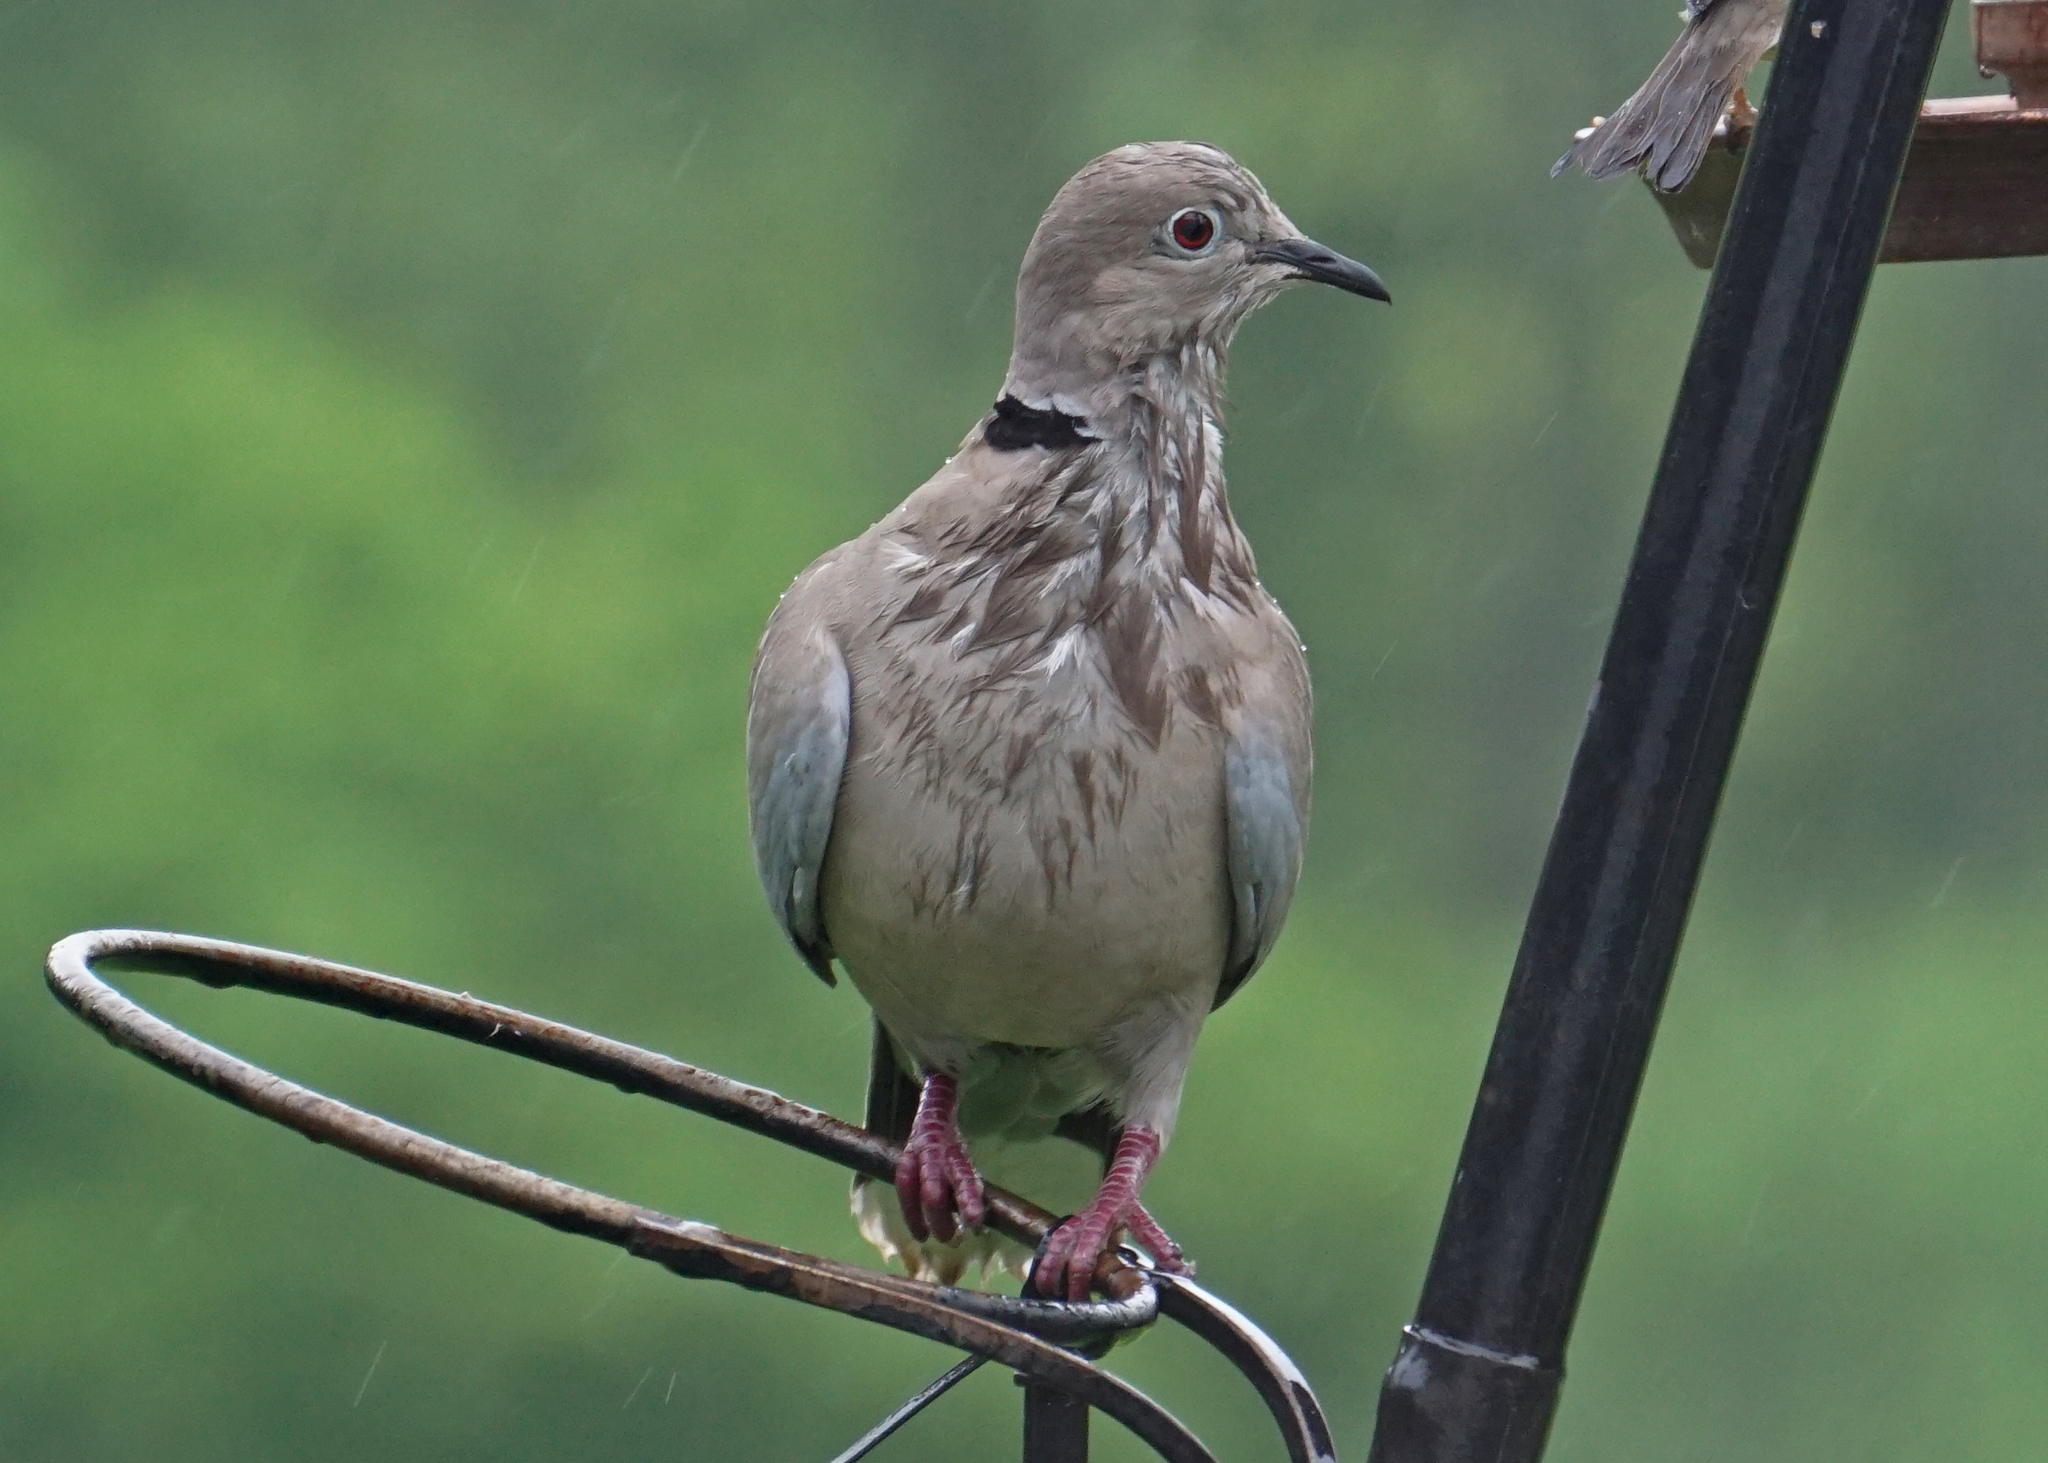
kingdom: Animalia
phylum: Chordata
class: Aves
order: Columbiformes
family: Columbidae
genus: Streptopelia
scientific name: Streptopelia decaocto
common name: Eurasian collared dove
